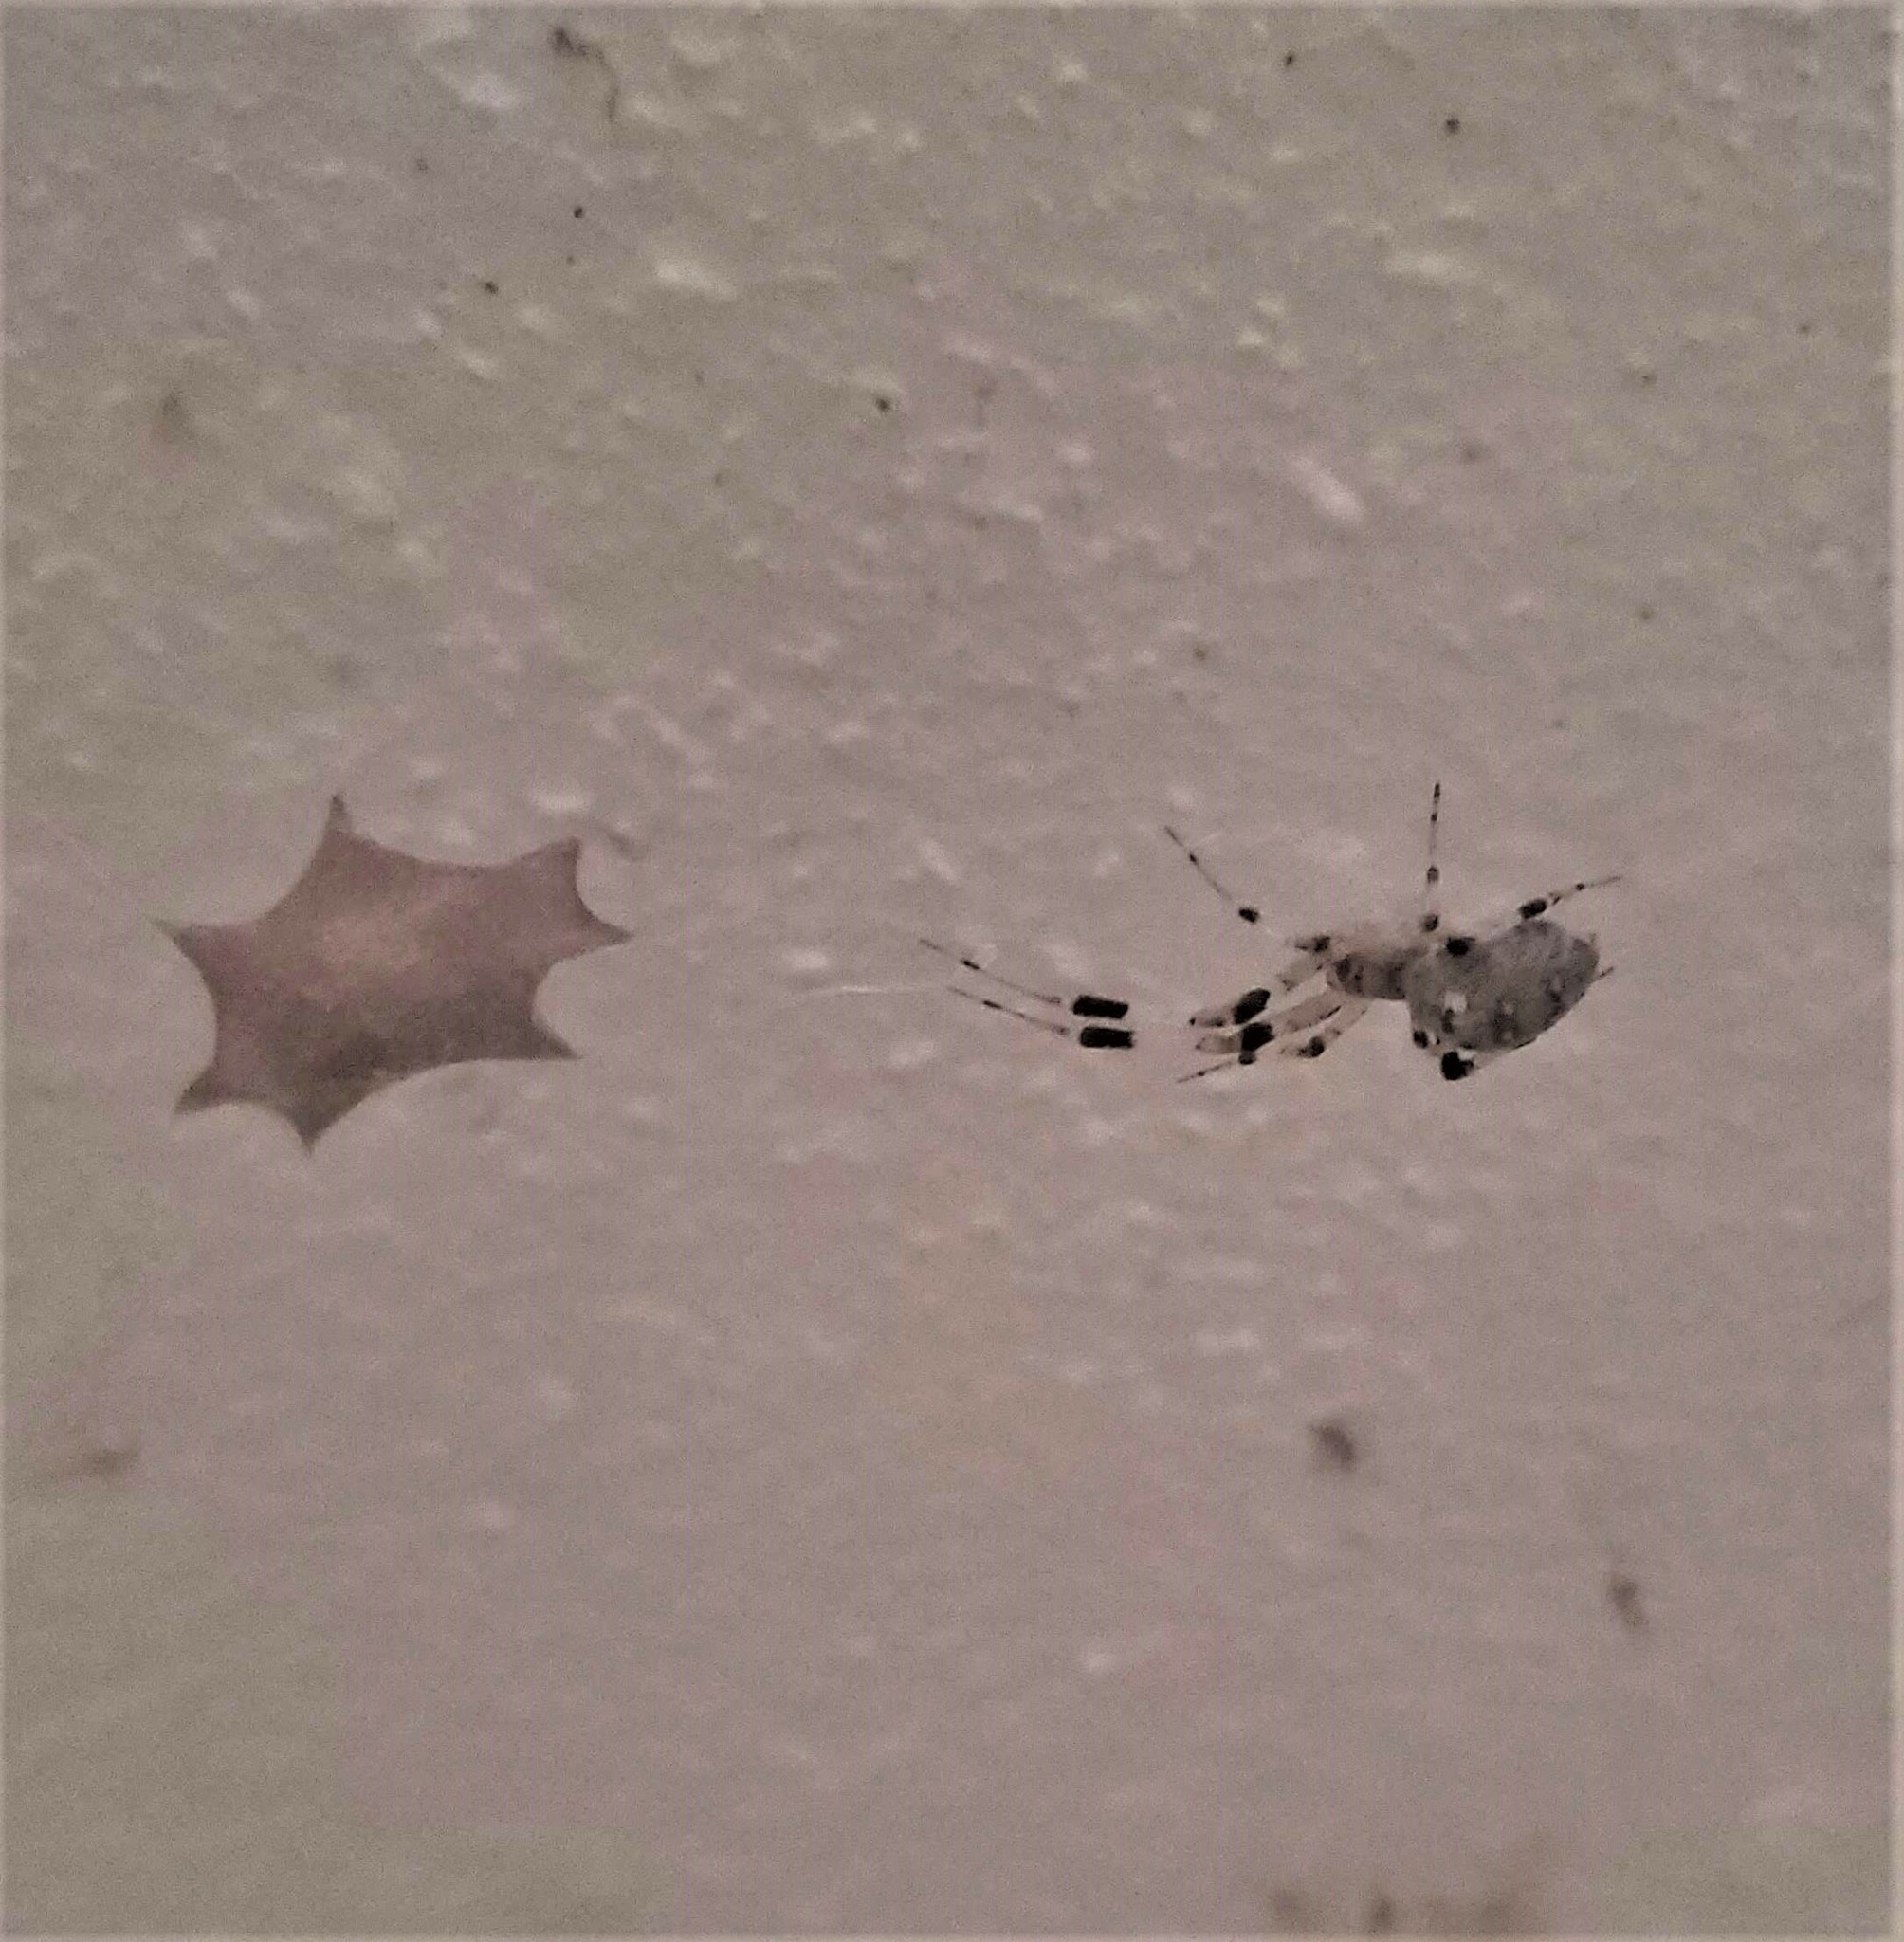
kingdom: Animalia
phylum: Arthropoda
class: Arachnida
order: Araneae
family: Uloboridae
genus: Zosis
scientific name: Zosis geniculata
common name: Hackled orb weavers
